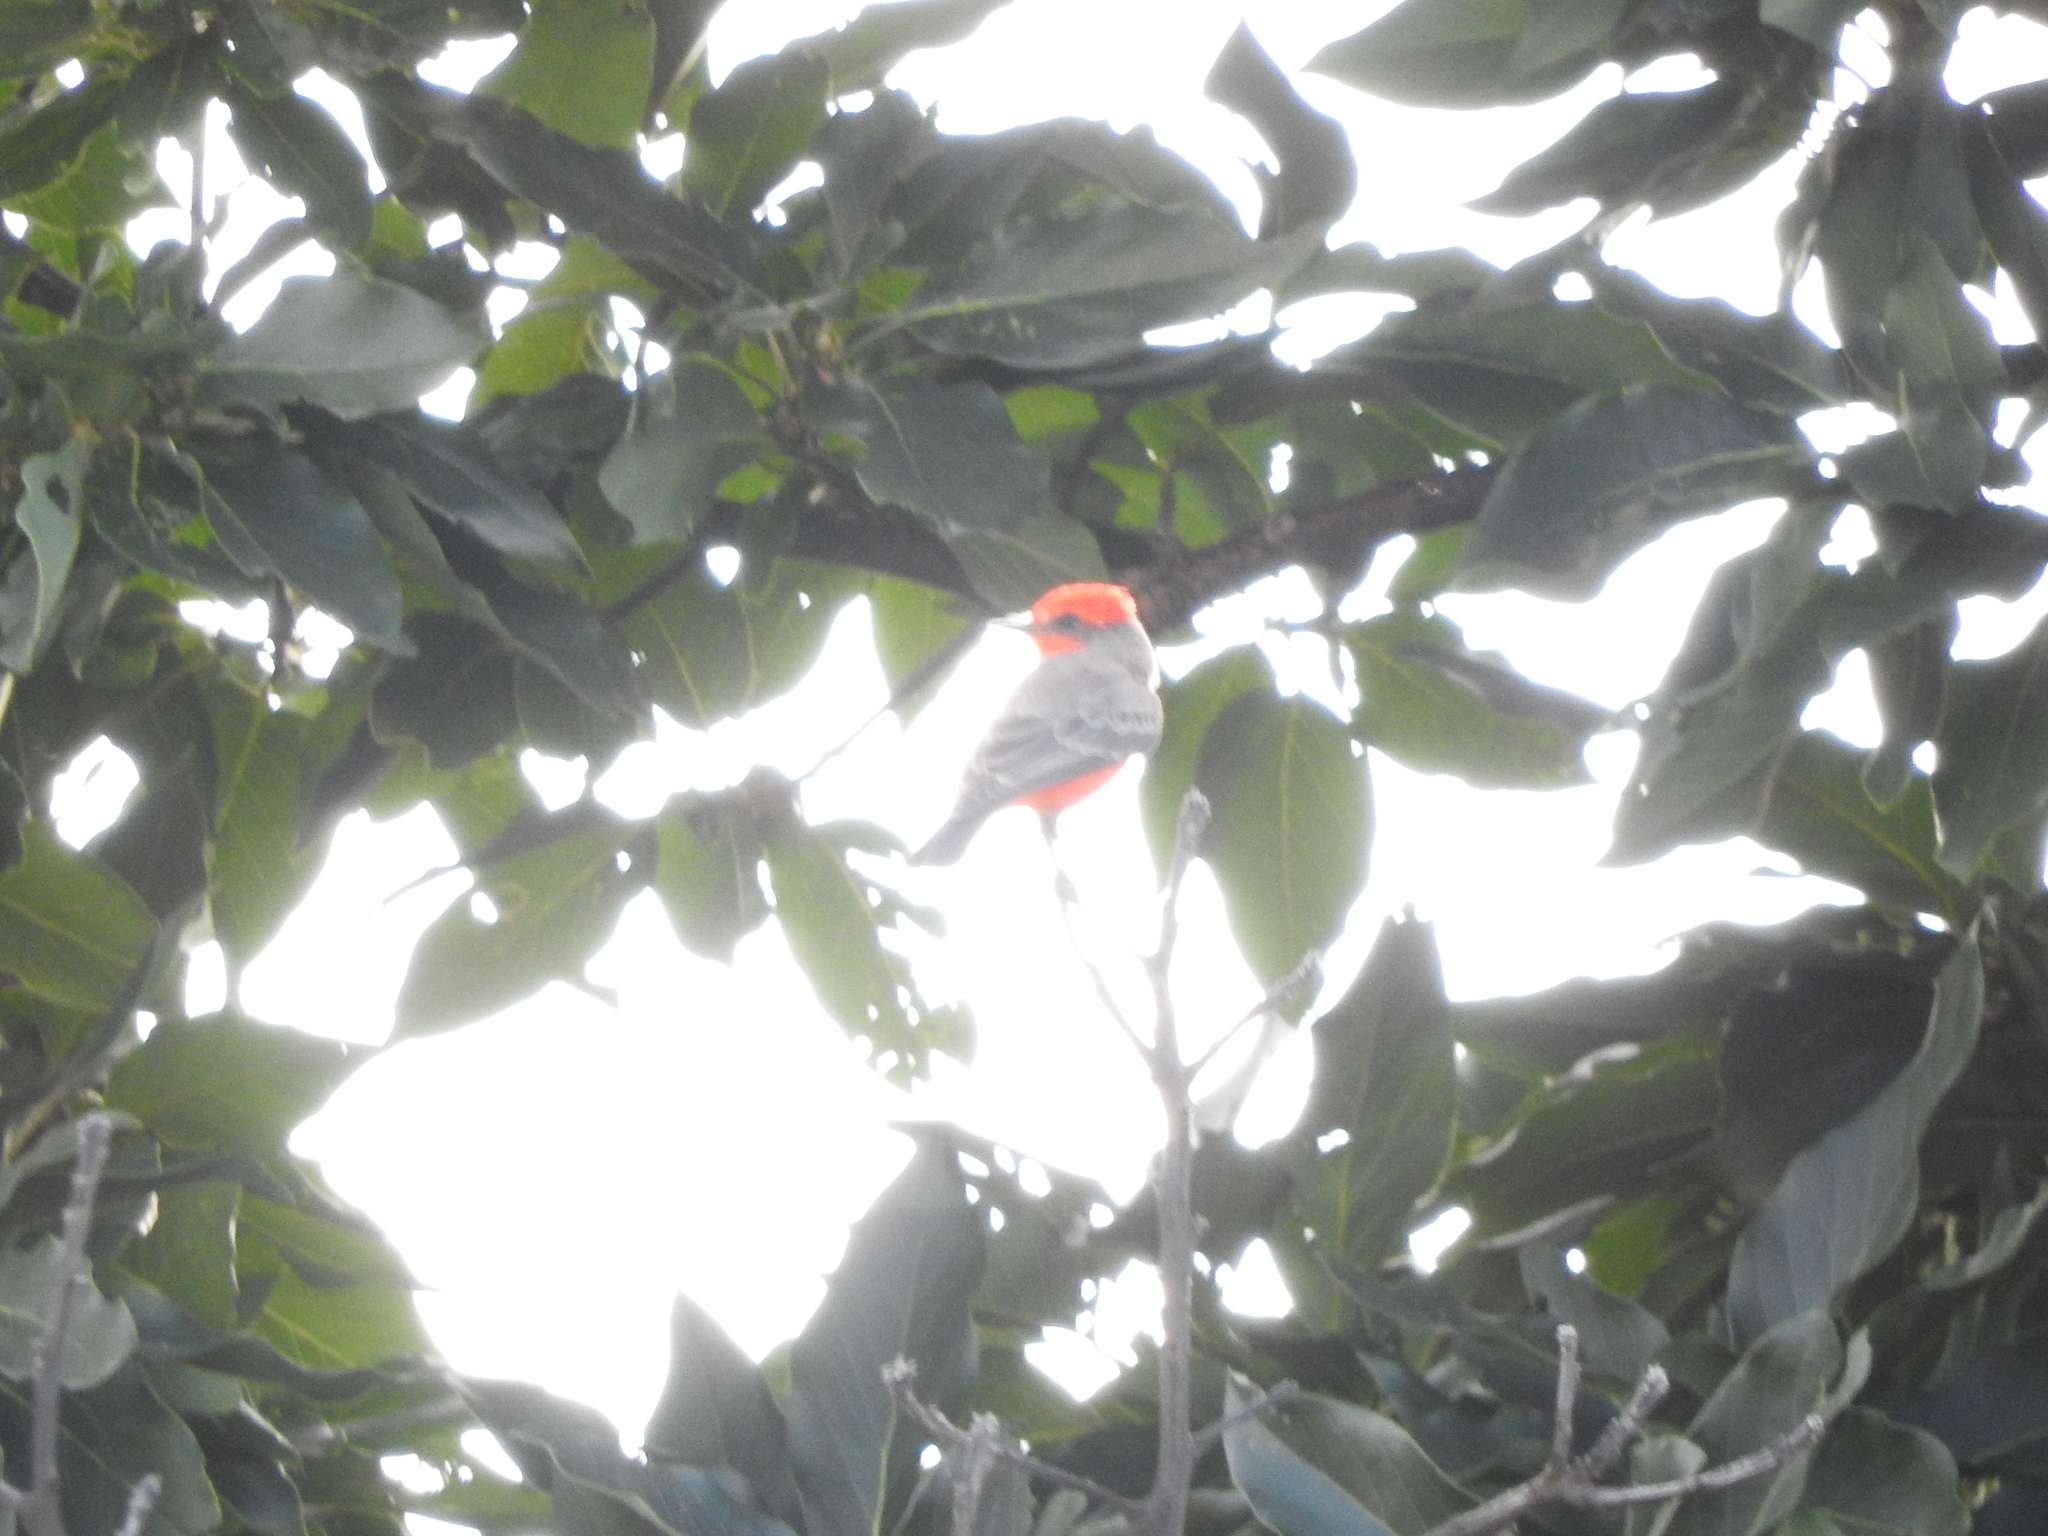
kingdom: Animalia
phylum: Chordata
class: Aves
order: Passeriformes
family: Tyrannidae
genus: Pyrocephalus
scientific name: Pyrocephalus rubinus
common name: Vermilion flycatcher
